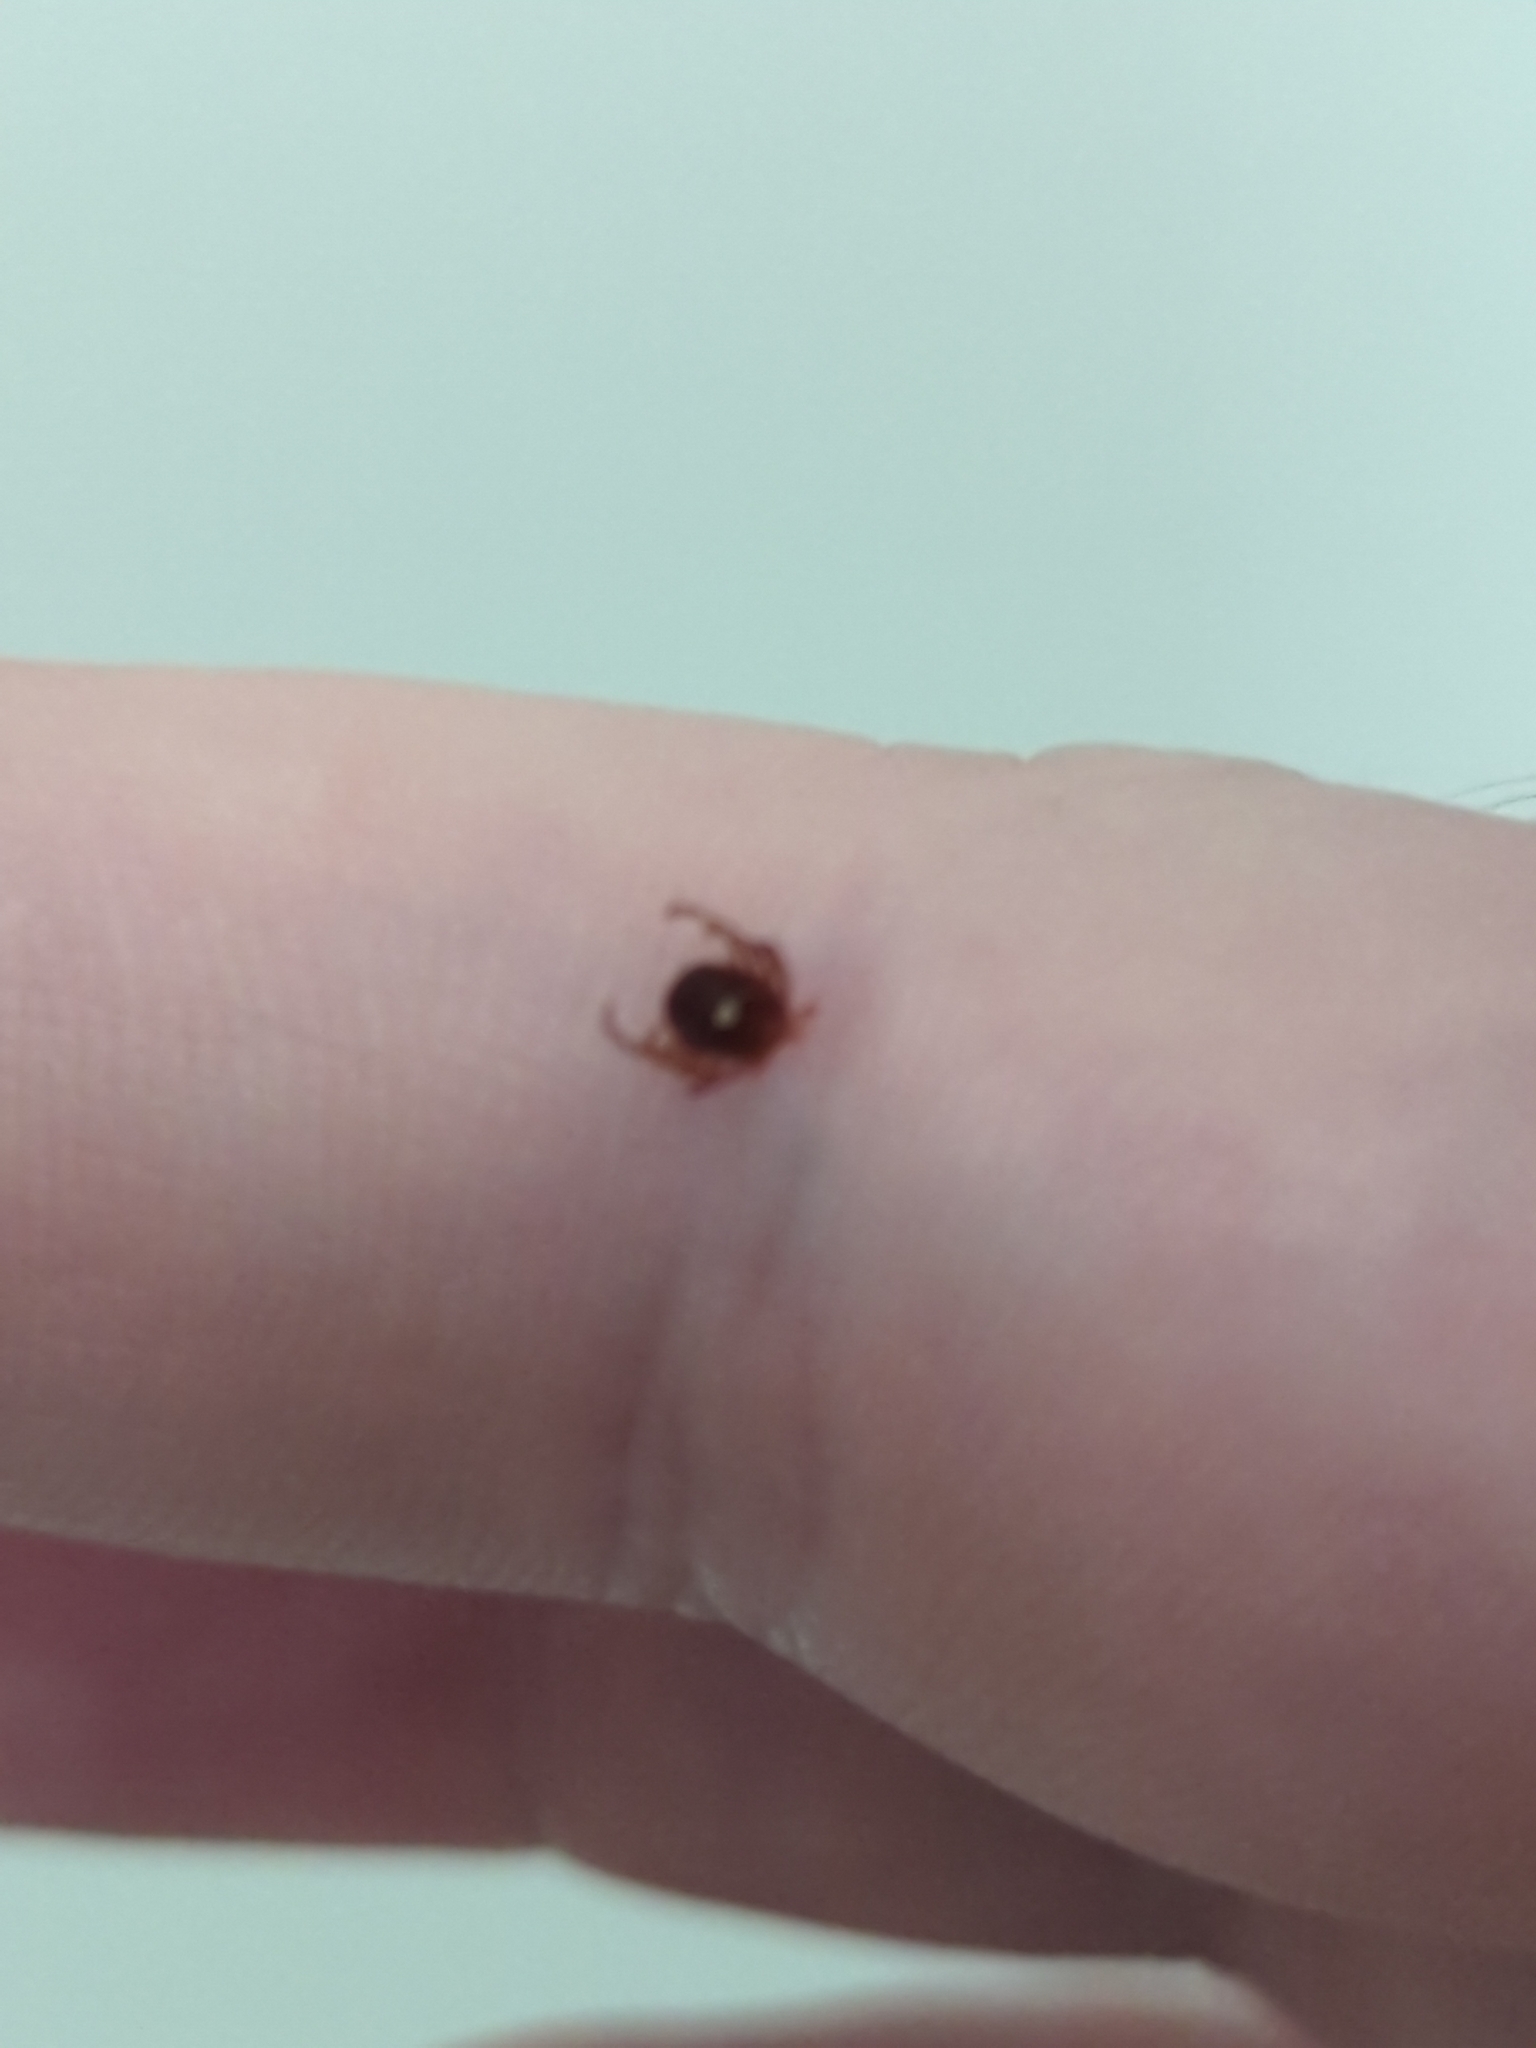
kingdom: Animalia
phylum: Arthropoda
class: Arachnida
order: Ixodida
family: Ixodidae
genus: Amblyomma
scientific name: Amblyomma americanum
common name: Lone star tick
